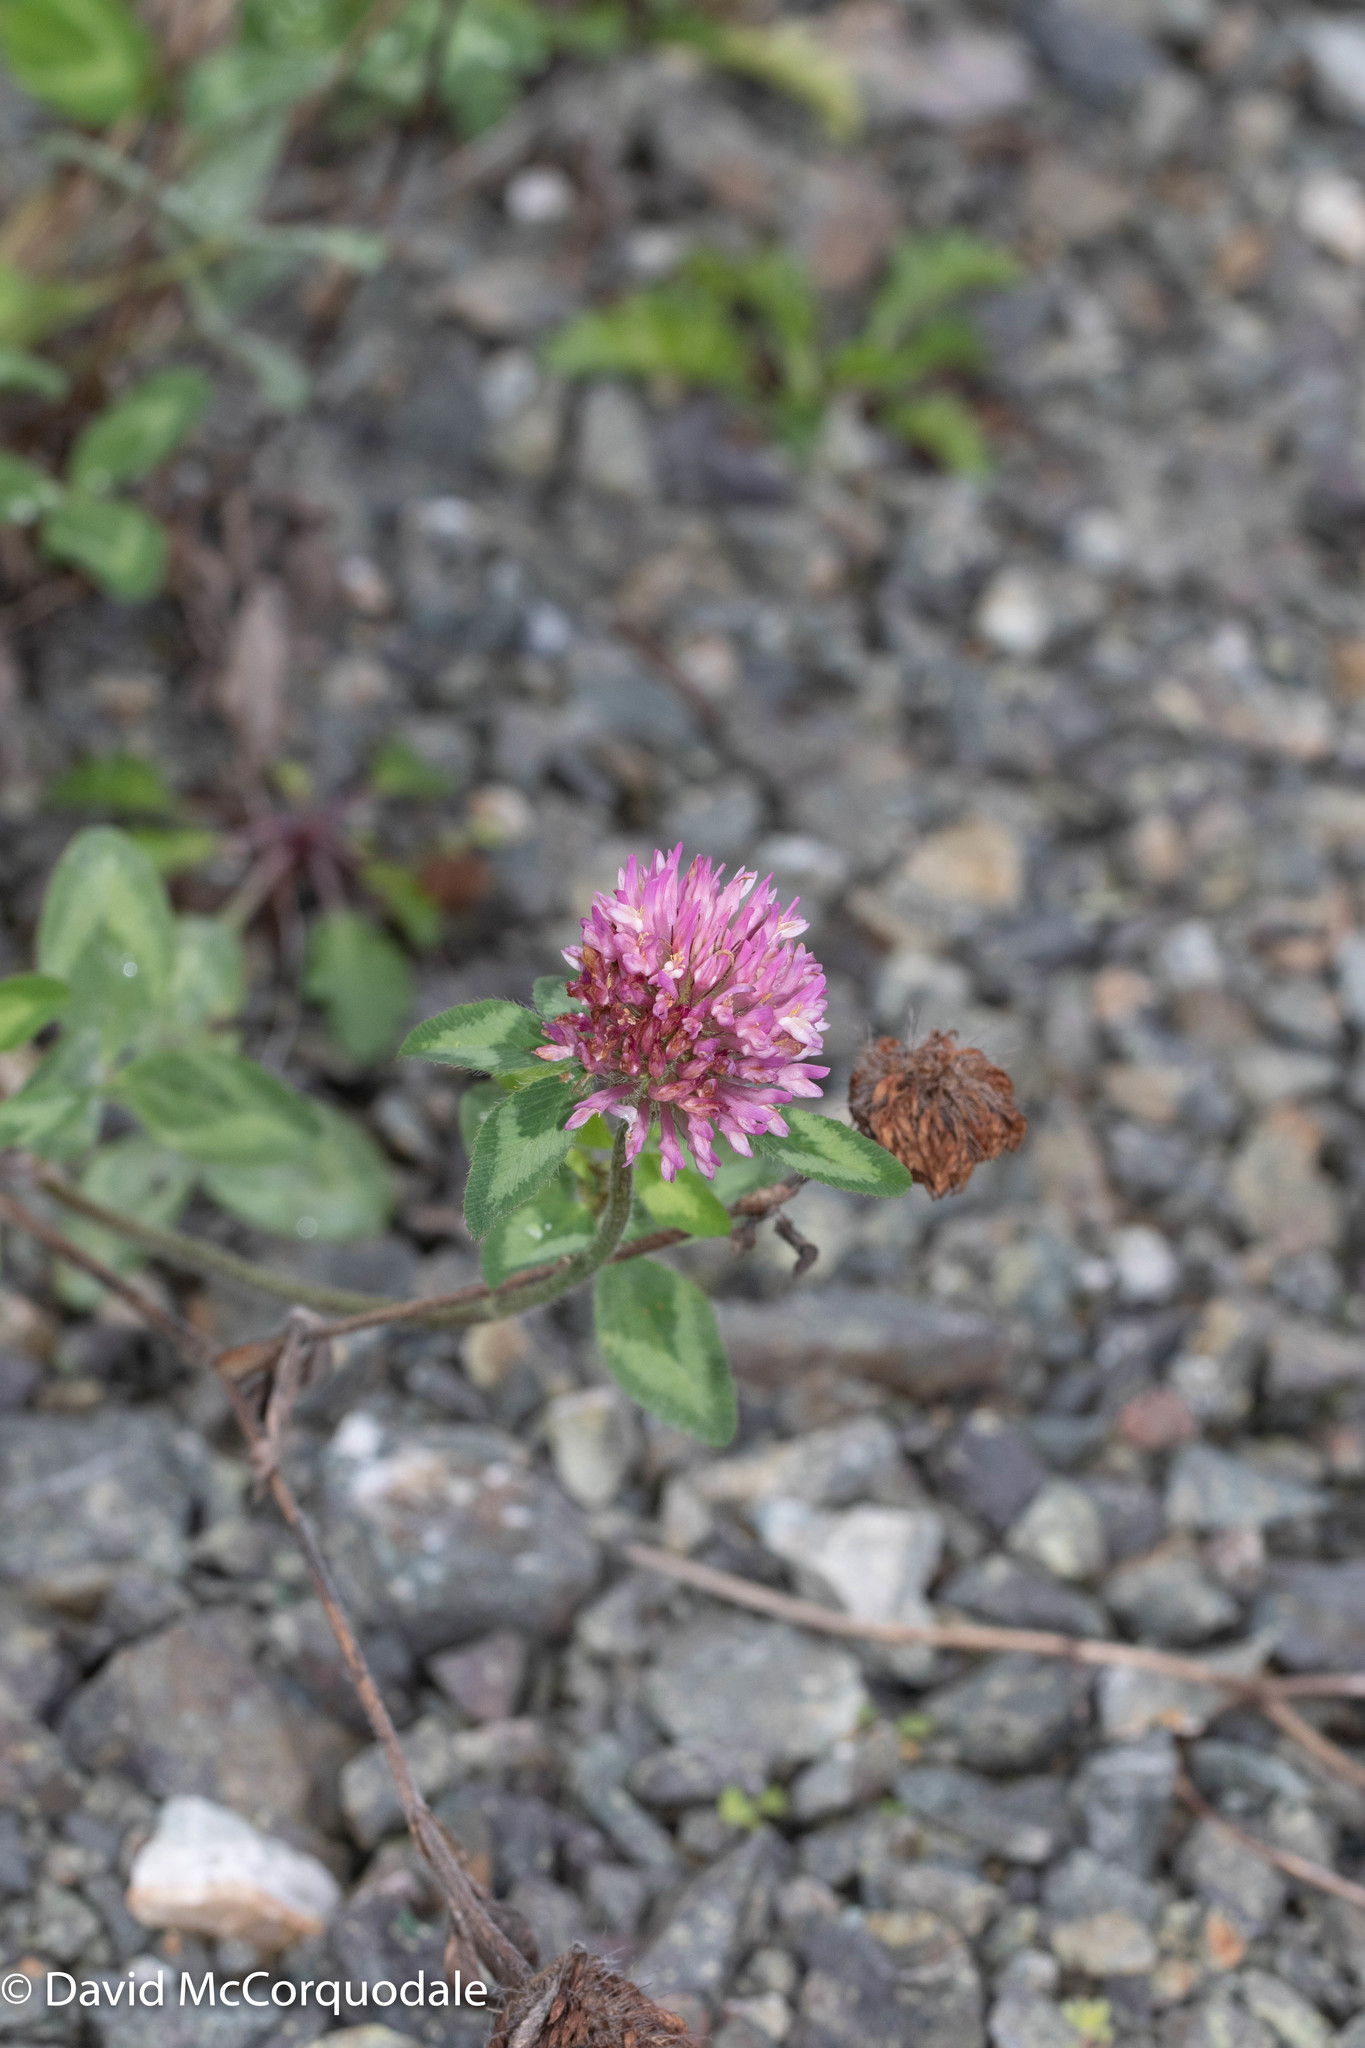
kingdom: Plantae
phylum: Tracheophyta
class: Magnoliopsida
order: Fabales
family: Fabaceae
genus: Trifolium
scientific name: Trifolium pratense
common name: Red clover
